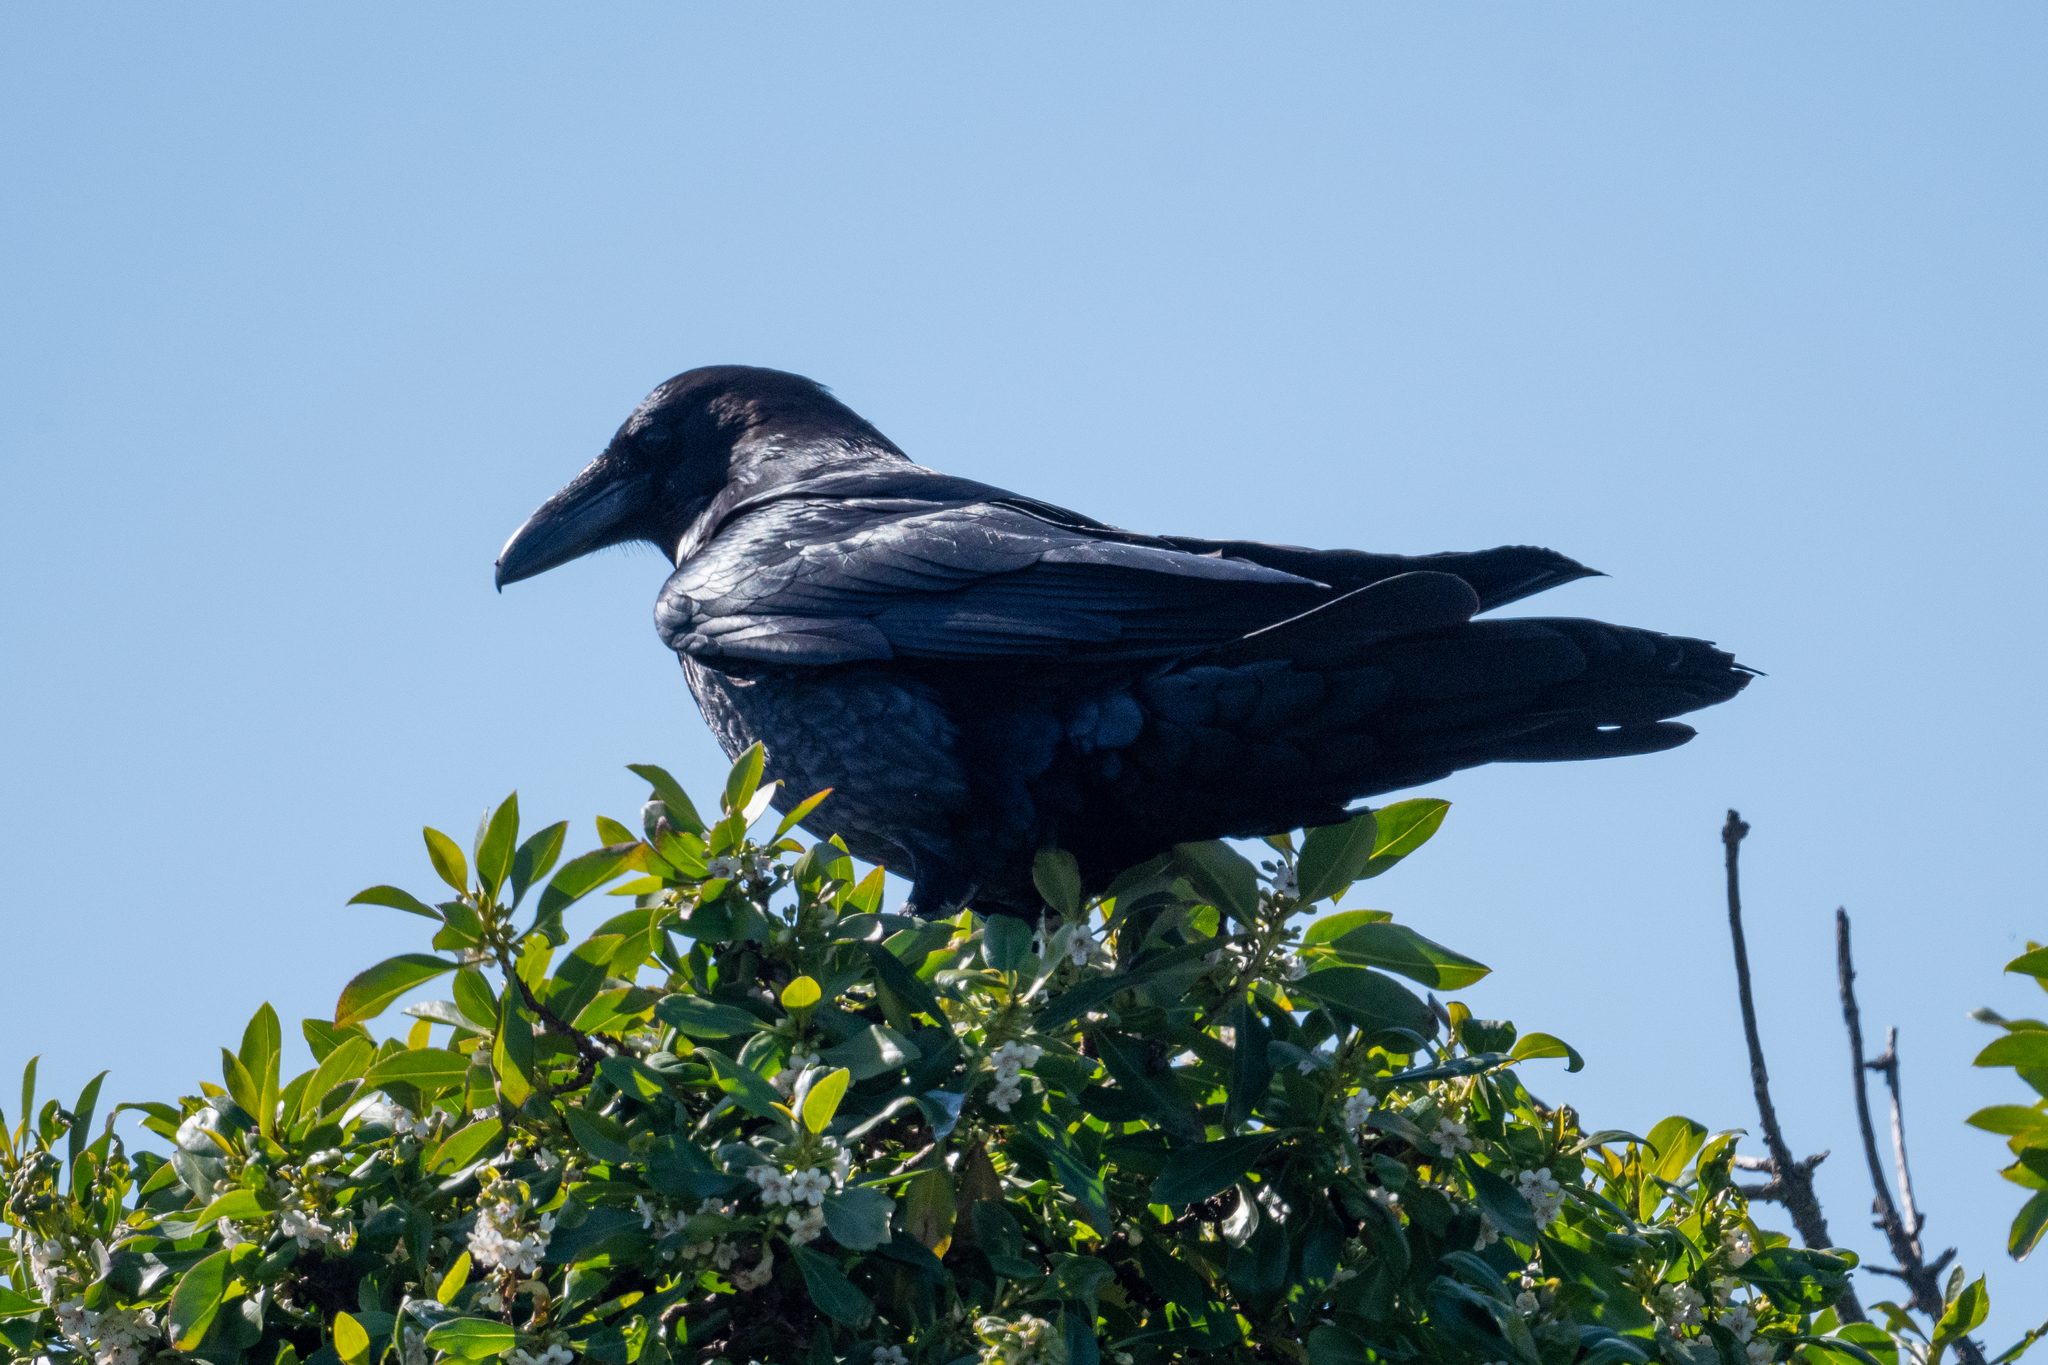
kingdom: Animalia
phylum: Chordata
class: Aves
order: Passeriformes
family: Corvidae
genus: Corvus
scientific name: Corvus corax
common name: Common raven
